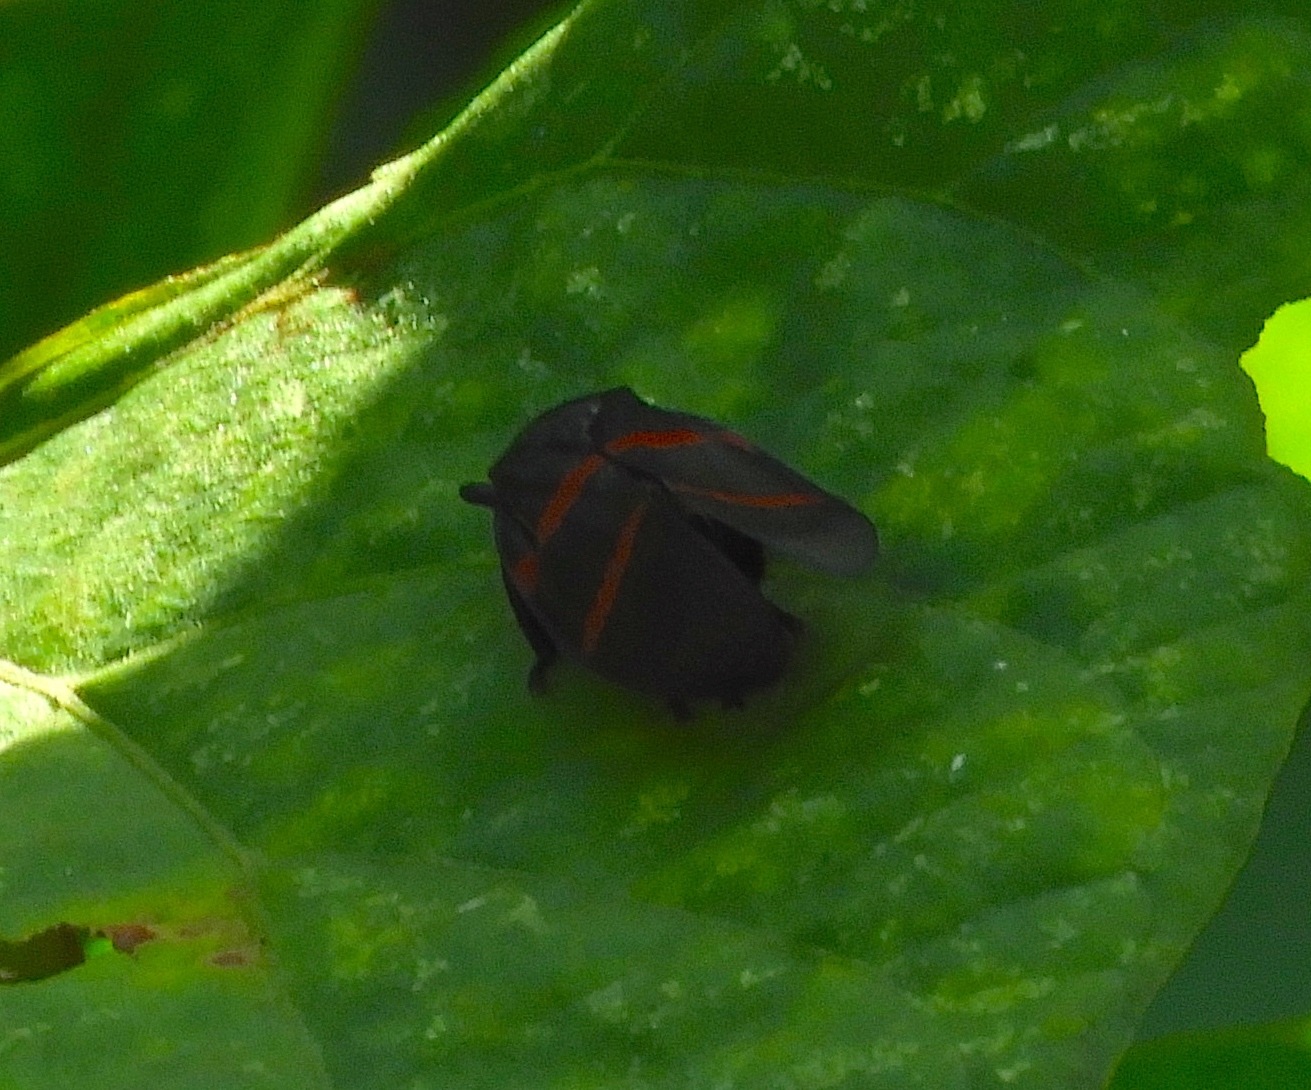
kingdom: Animalia
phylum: Arthropoda
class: Insecta
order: Hemiptera
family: Cercopidae
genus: Huaina
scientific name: Huaina inca
